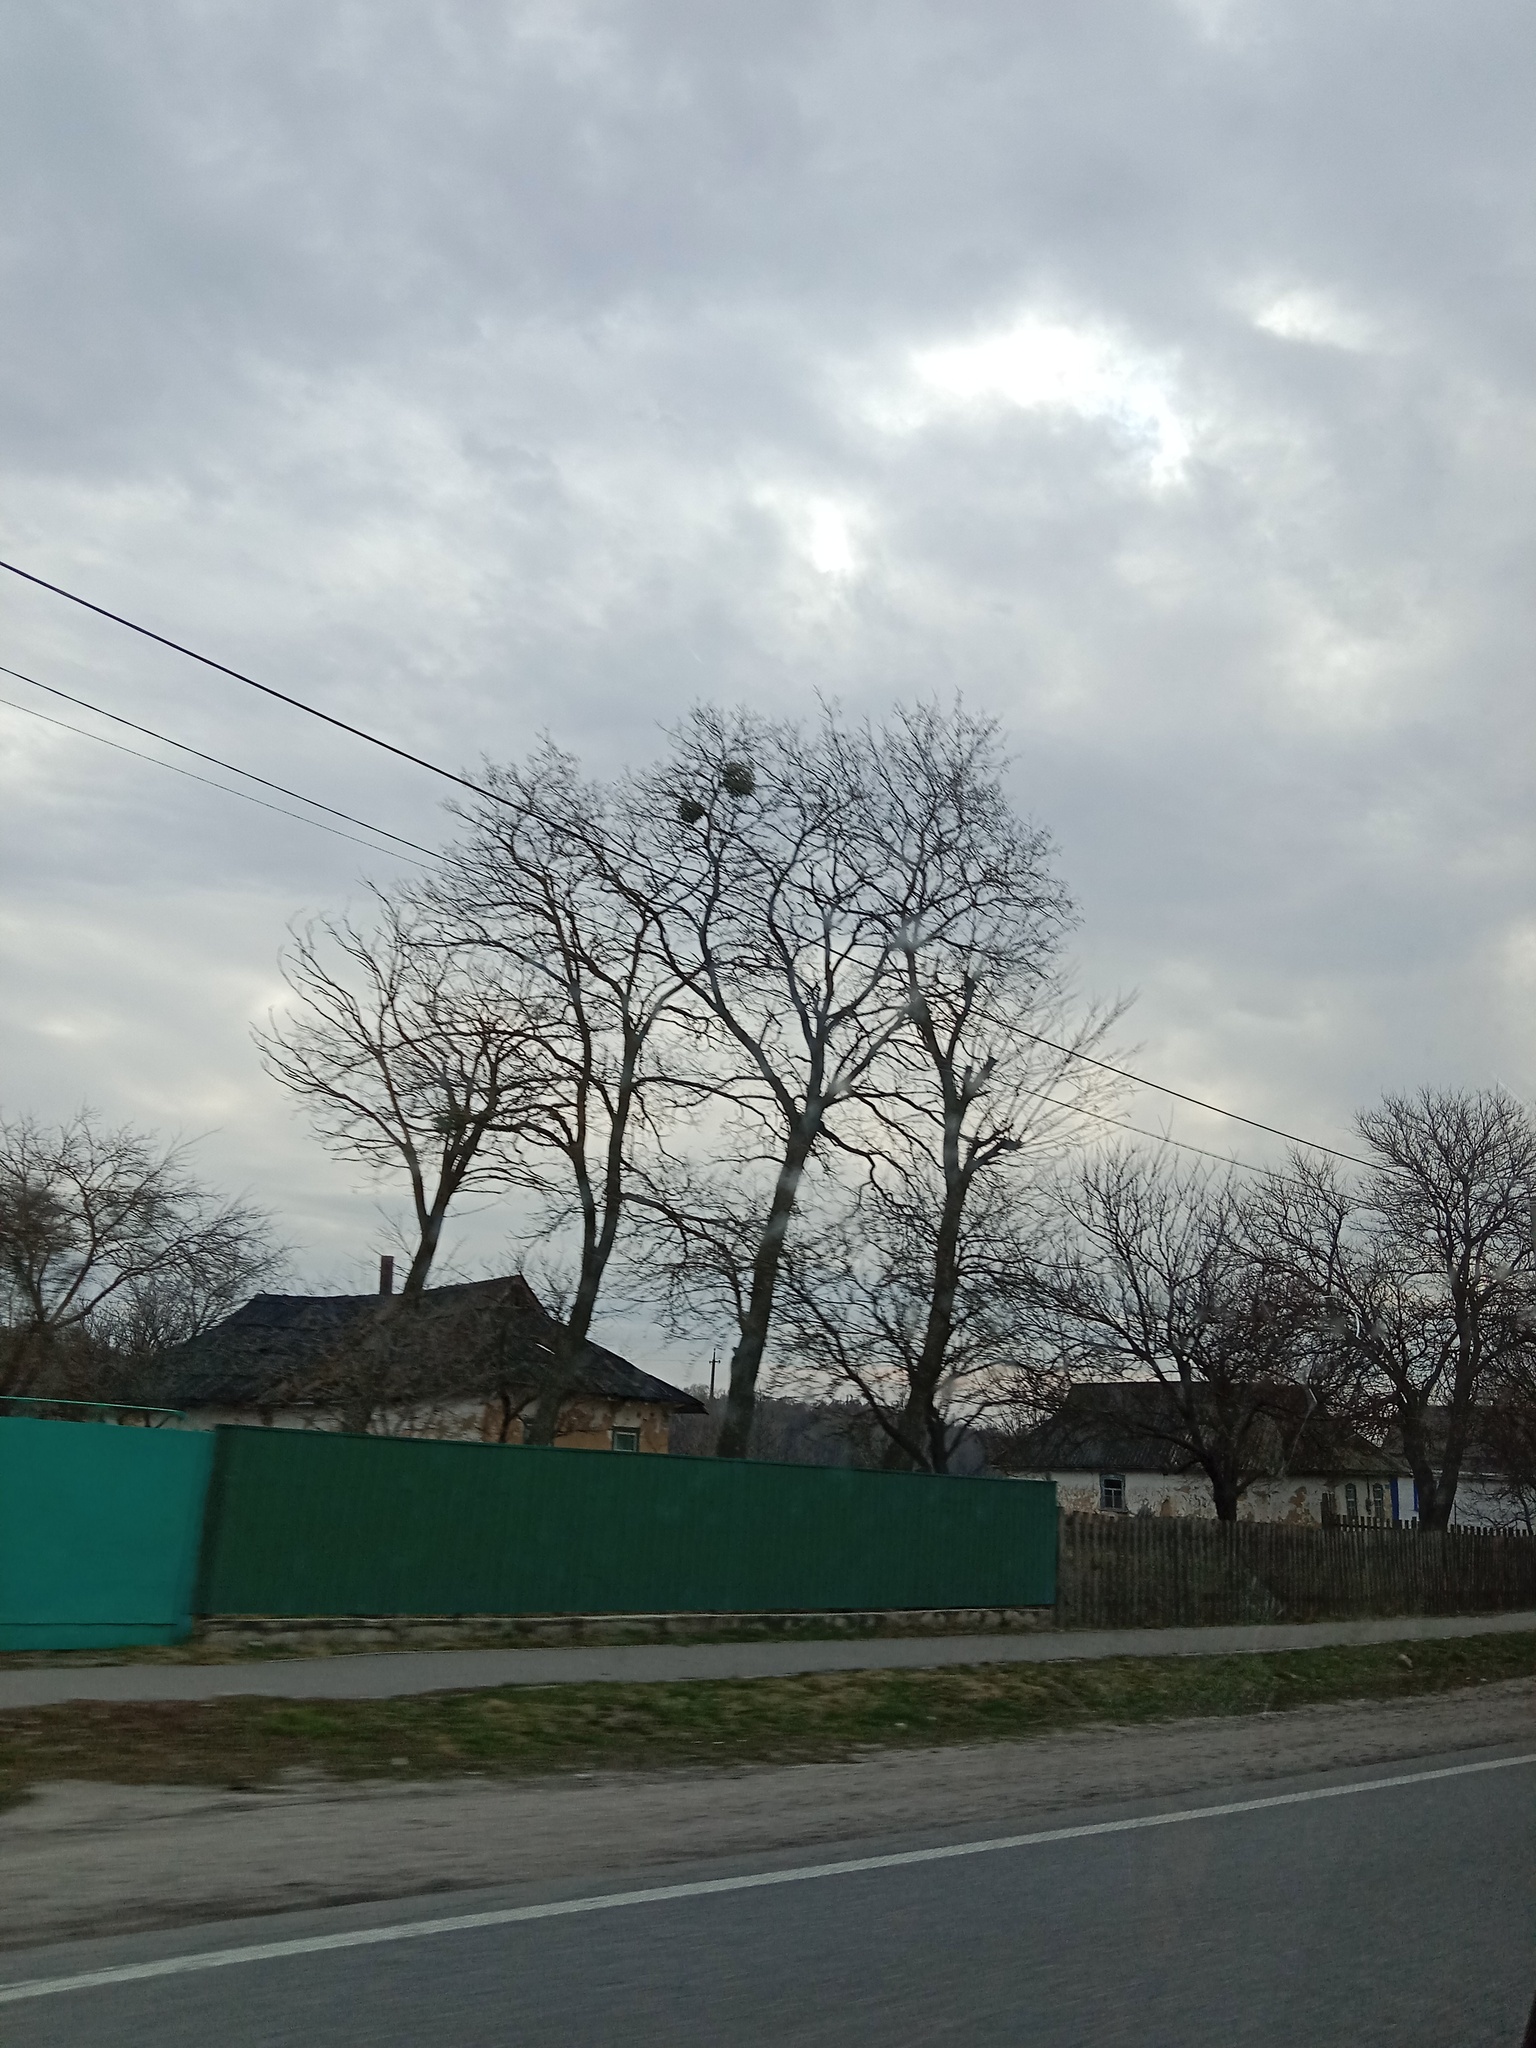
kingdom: Plantae
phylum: Tracheophyta
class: Magnoliopsida
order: Santalales
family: Viscaceae
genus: Viscum
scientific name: Viscum album
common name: Mistletoe
